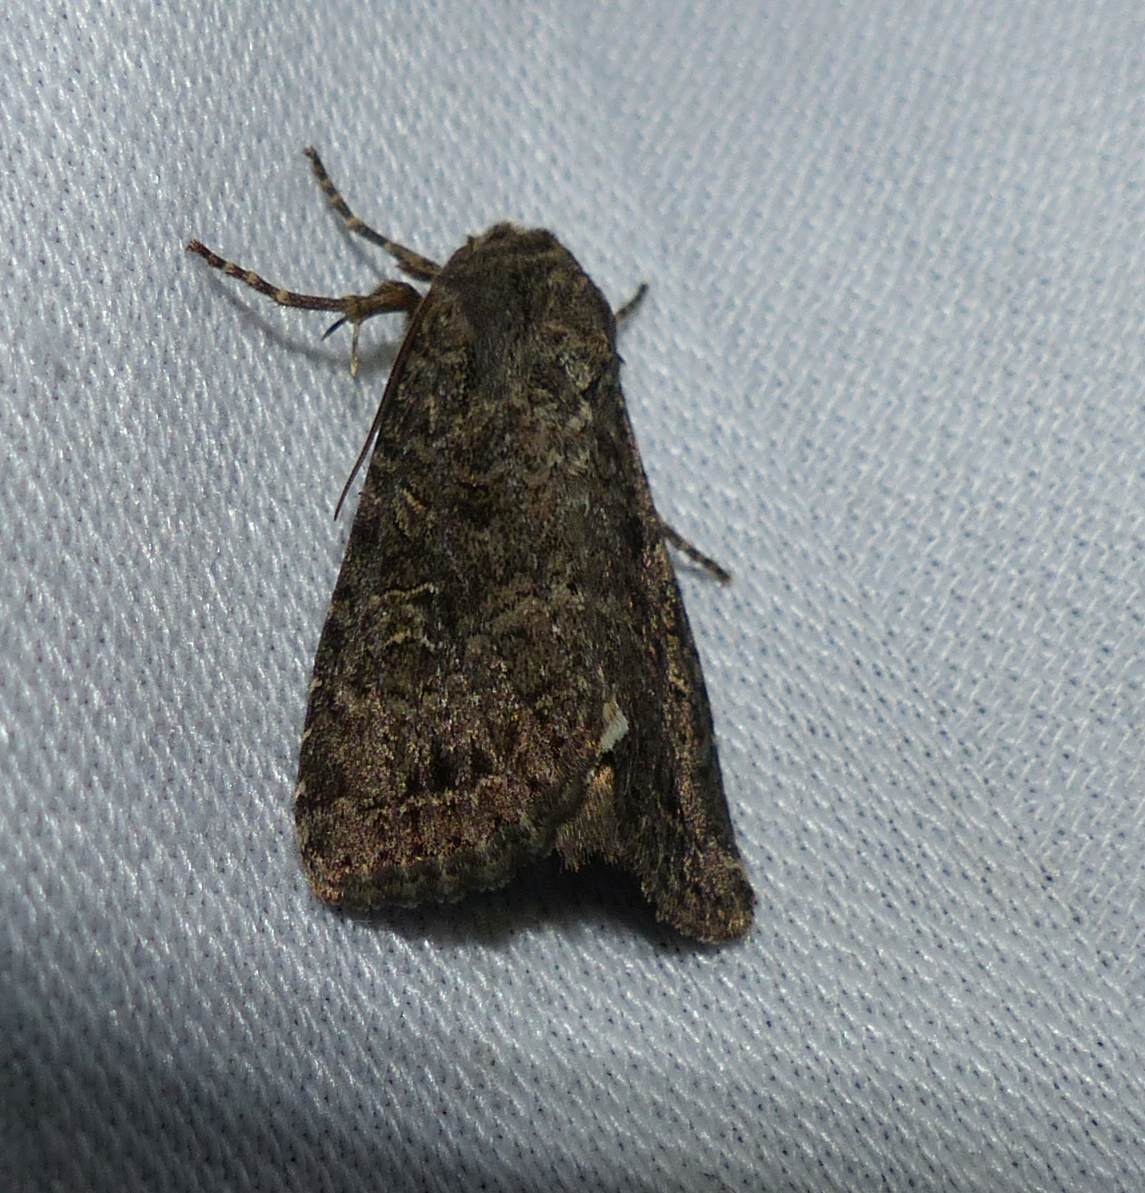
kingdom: Animalia
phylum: Arthropoda
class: Insecta
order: Lepidoptera
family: Noctuidae
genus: Apamea
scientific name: Apamea devastator
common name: Glassy cutworm
